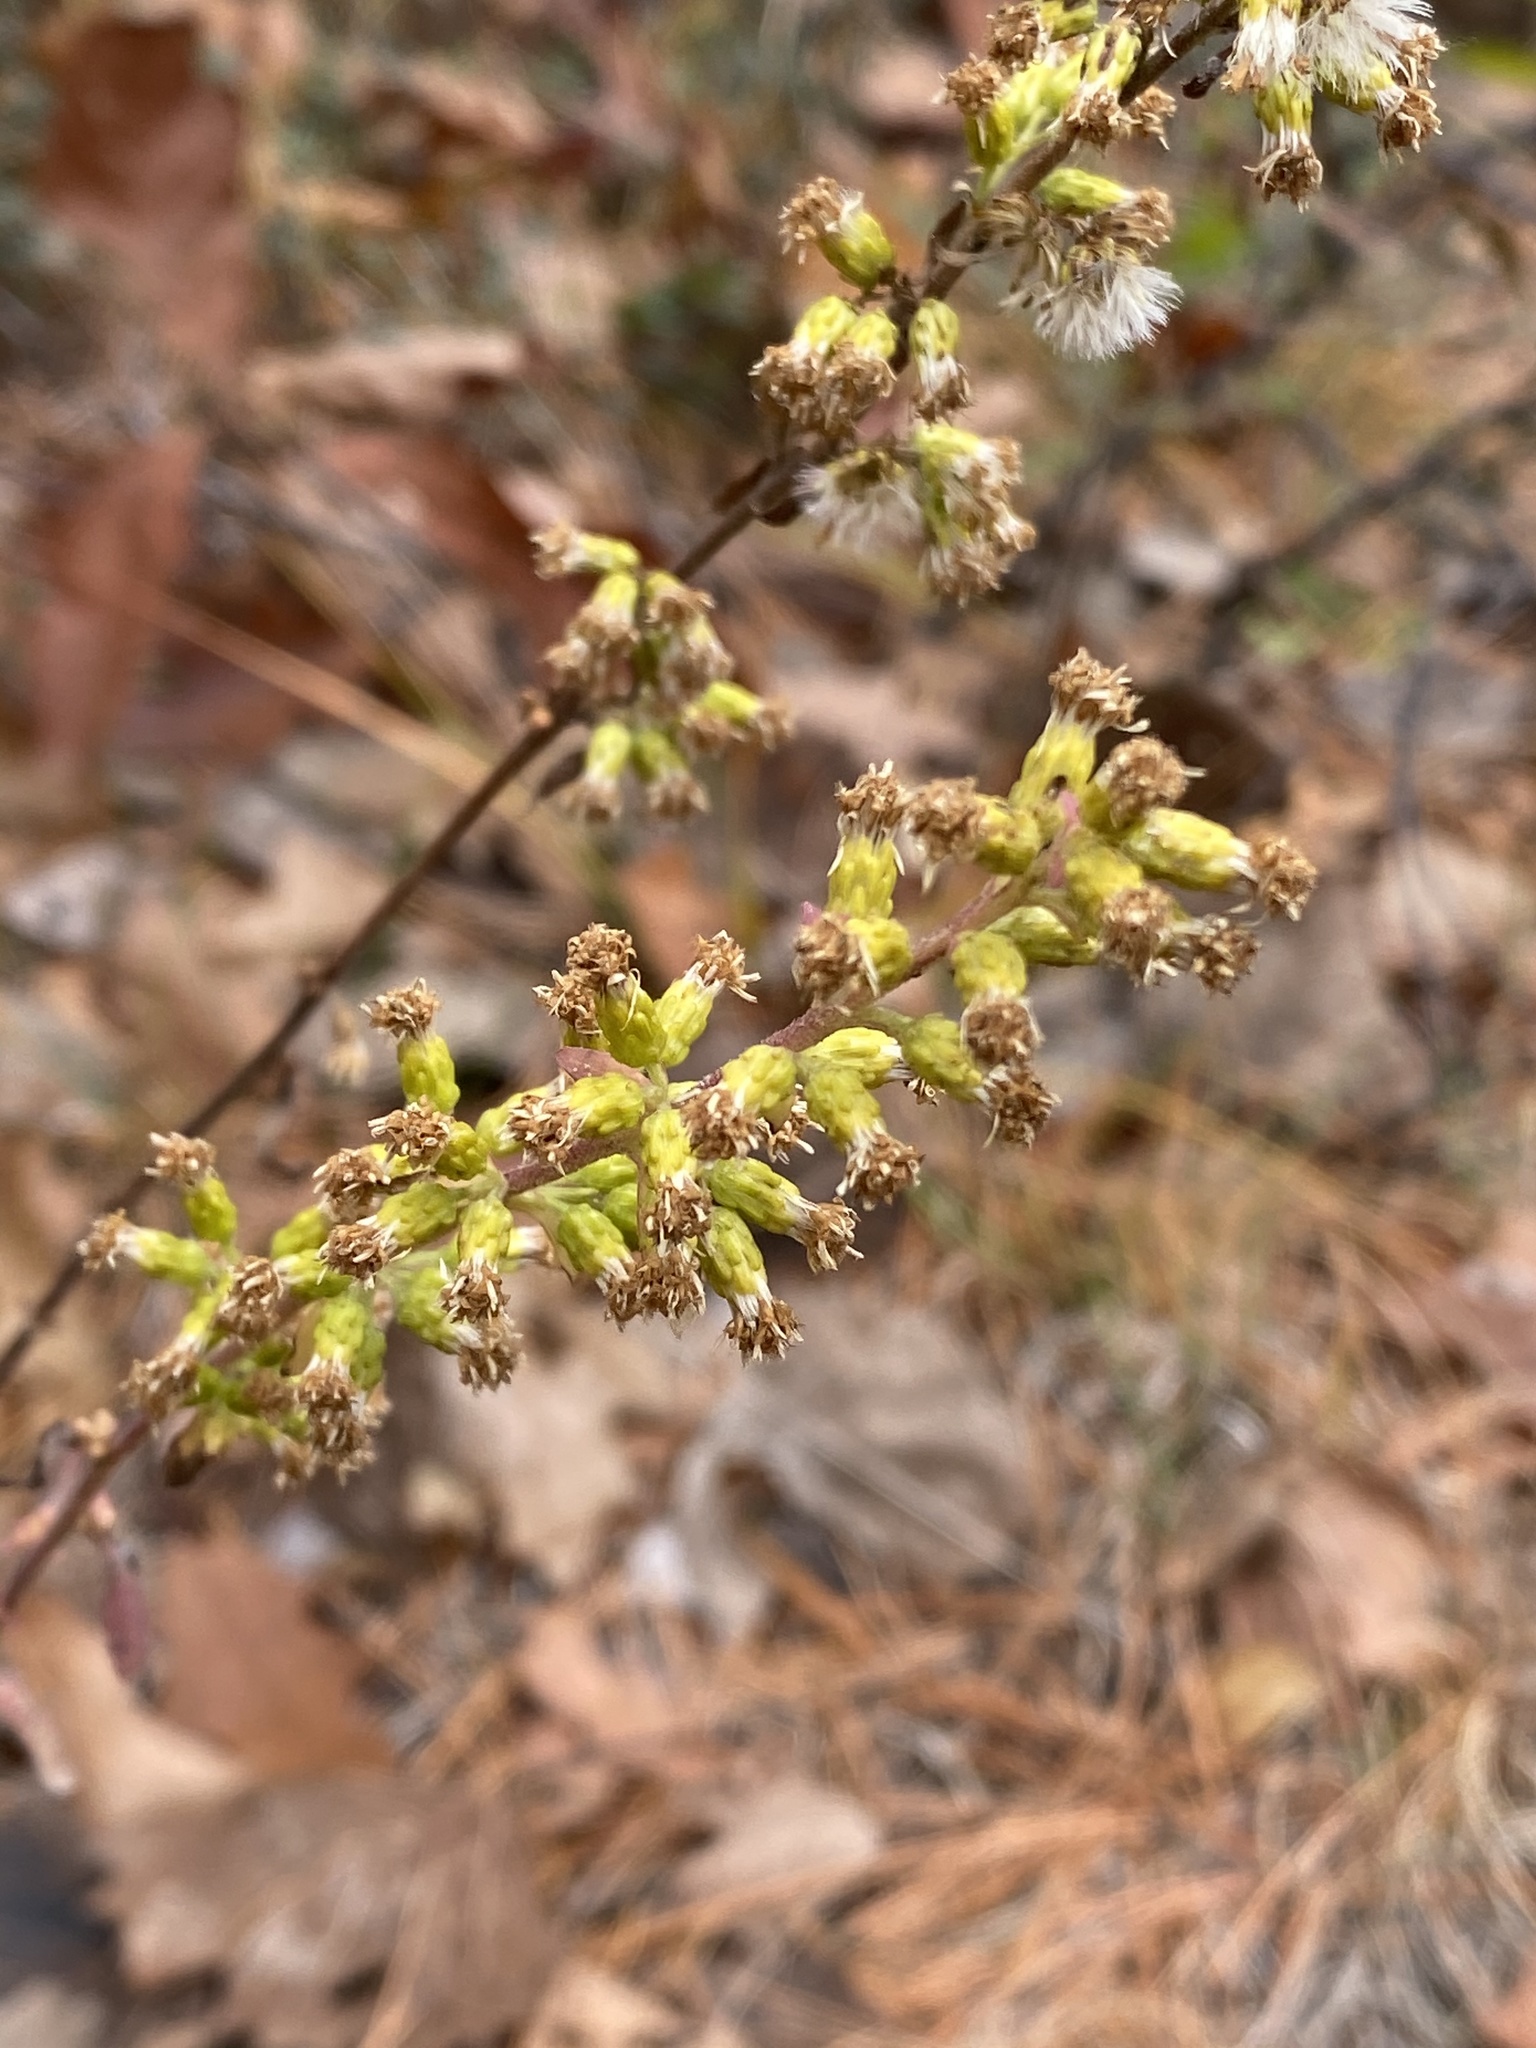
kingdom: Plantae
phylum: Tracheophyta
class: Magnoliopsida
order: Asterales
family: Asteraceae
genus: Solidago
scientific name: Solidago hispida
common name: Hairy goldenrod
